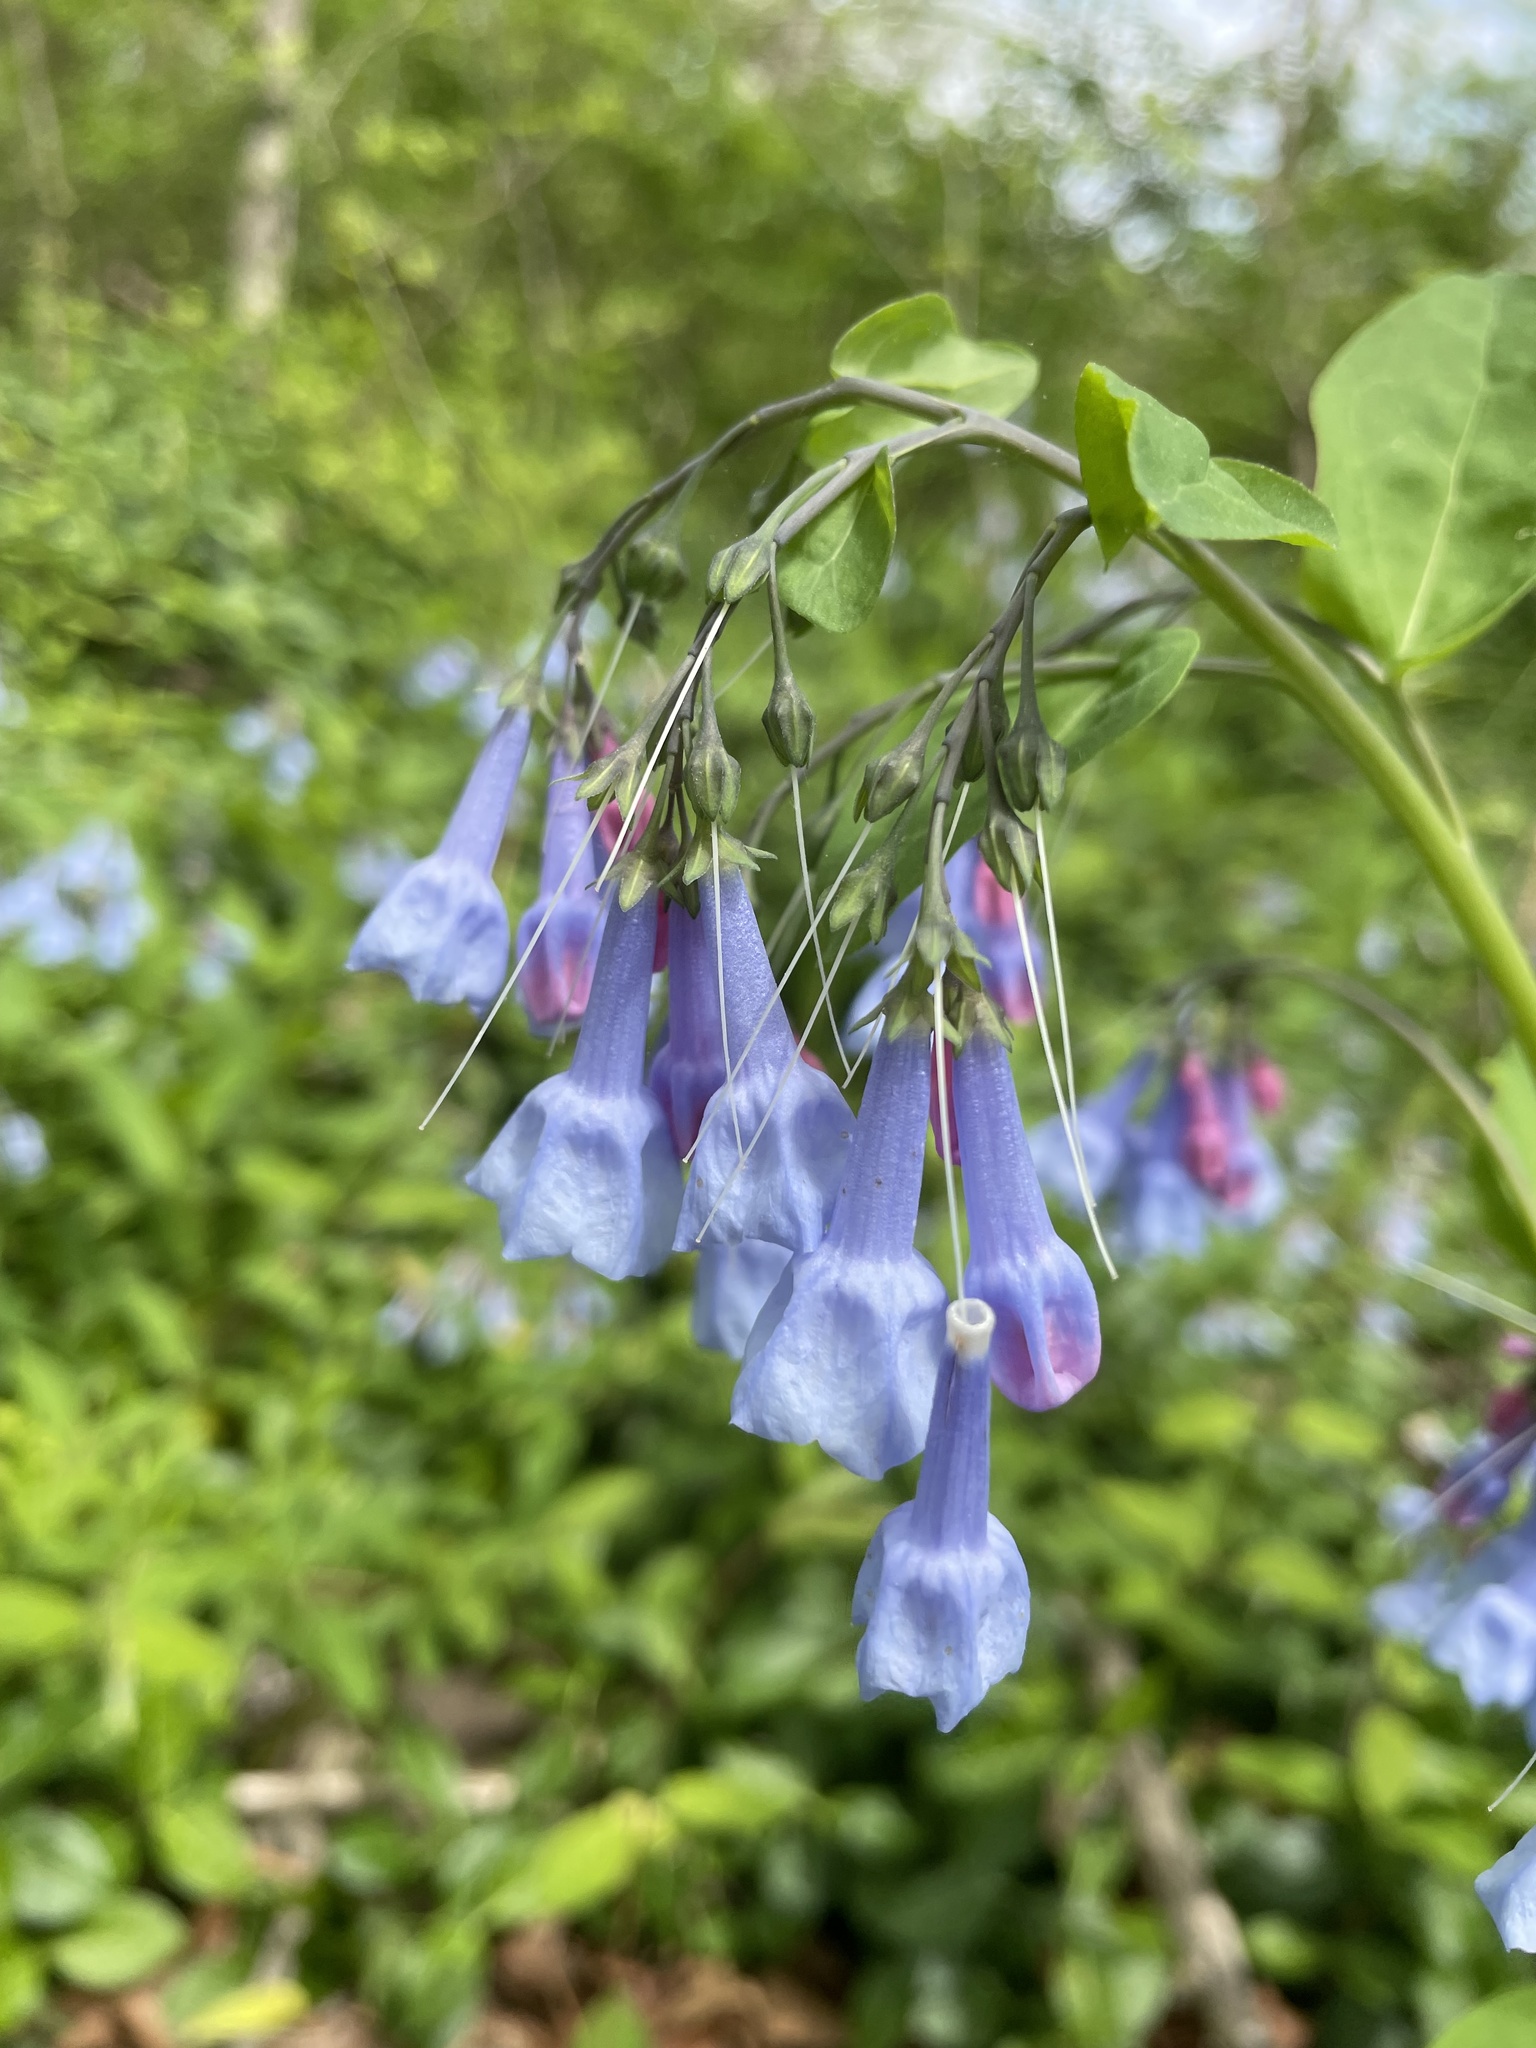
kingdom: Plantae
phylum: Tracheophyta
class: Magnoliopsida
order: Boraginales
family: Boraginaceae
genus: Mertensia
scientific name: Mertensia virginica
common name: Virginia bluebells
